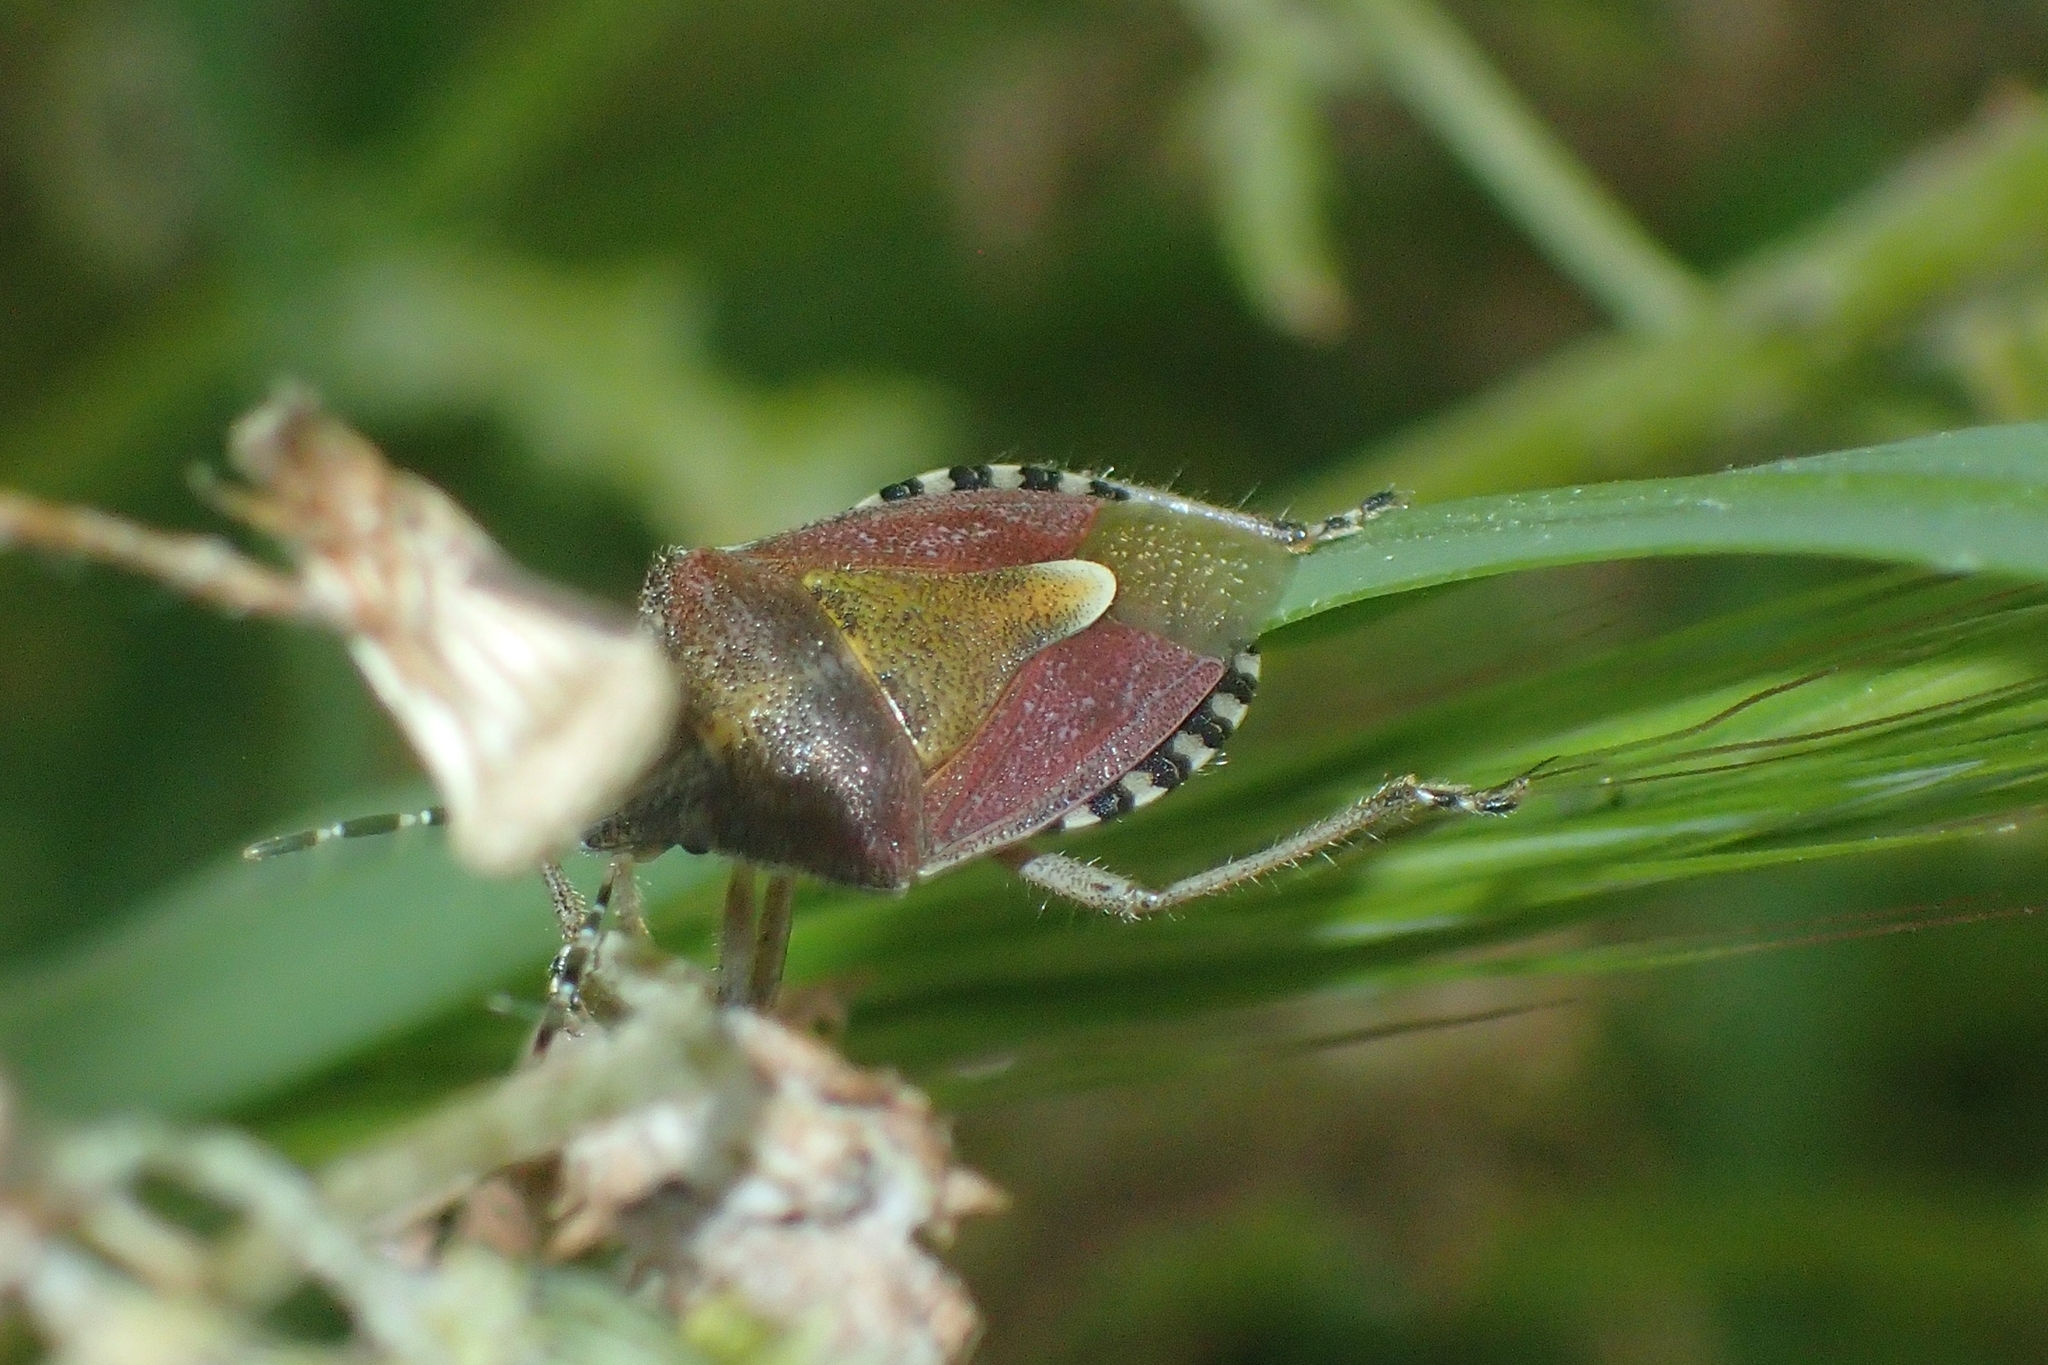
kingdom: Animalia
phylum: Arthropoda
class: Insecta
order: Hemiptera
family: Pentatomidae
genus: Dolycoris
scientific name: Dolycoris baccarum
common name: Sloe bug
